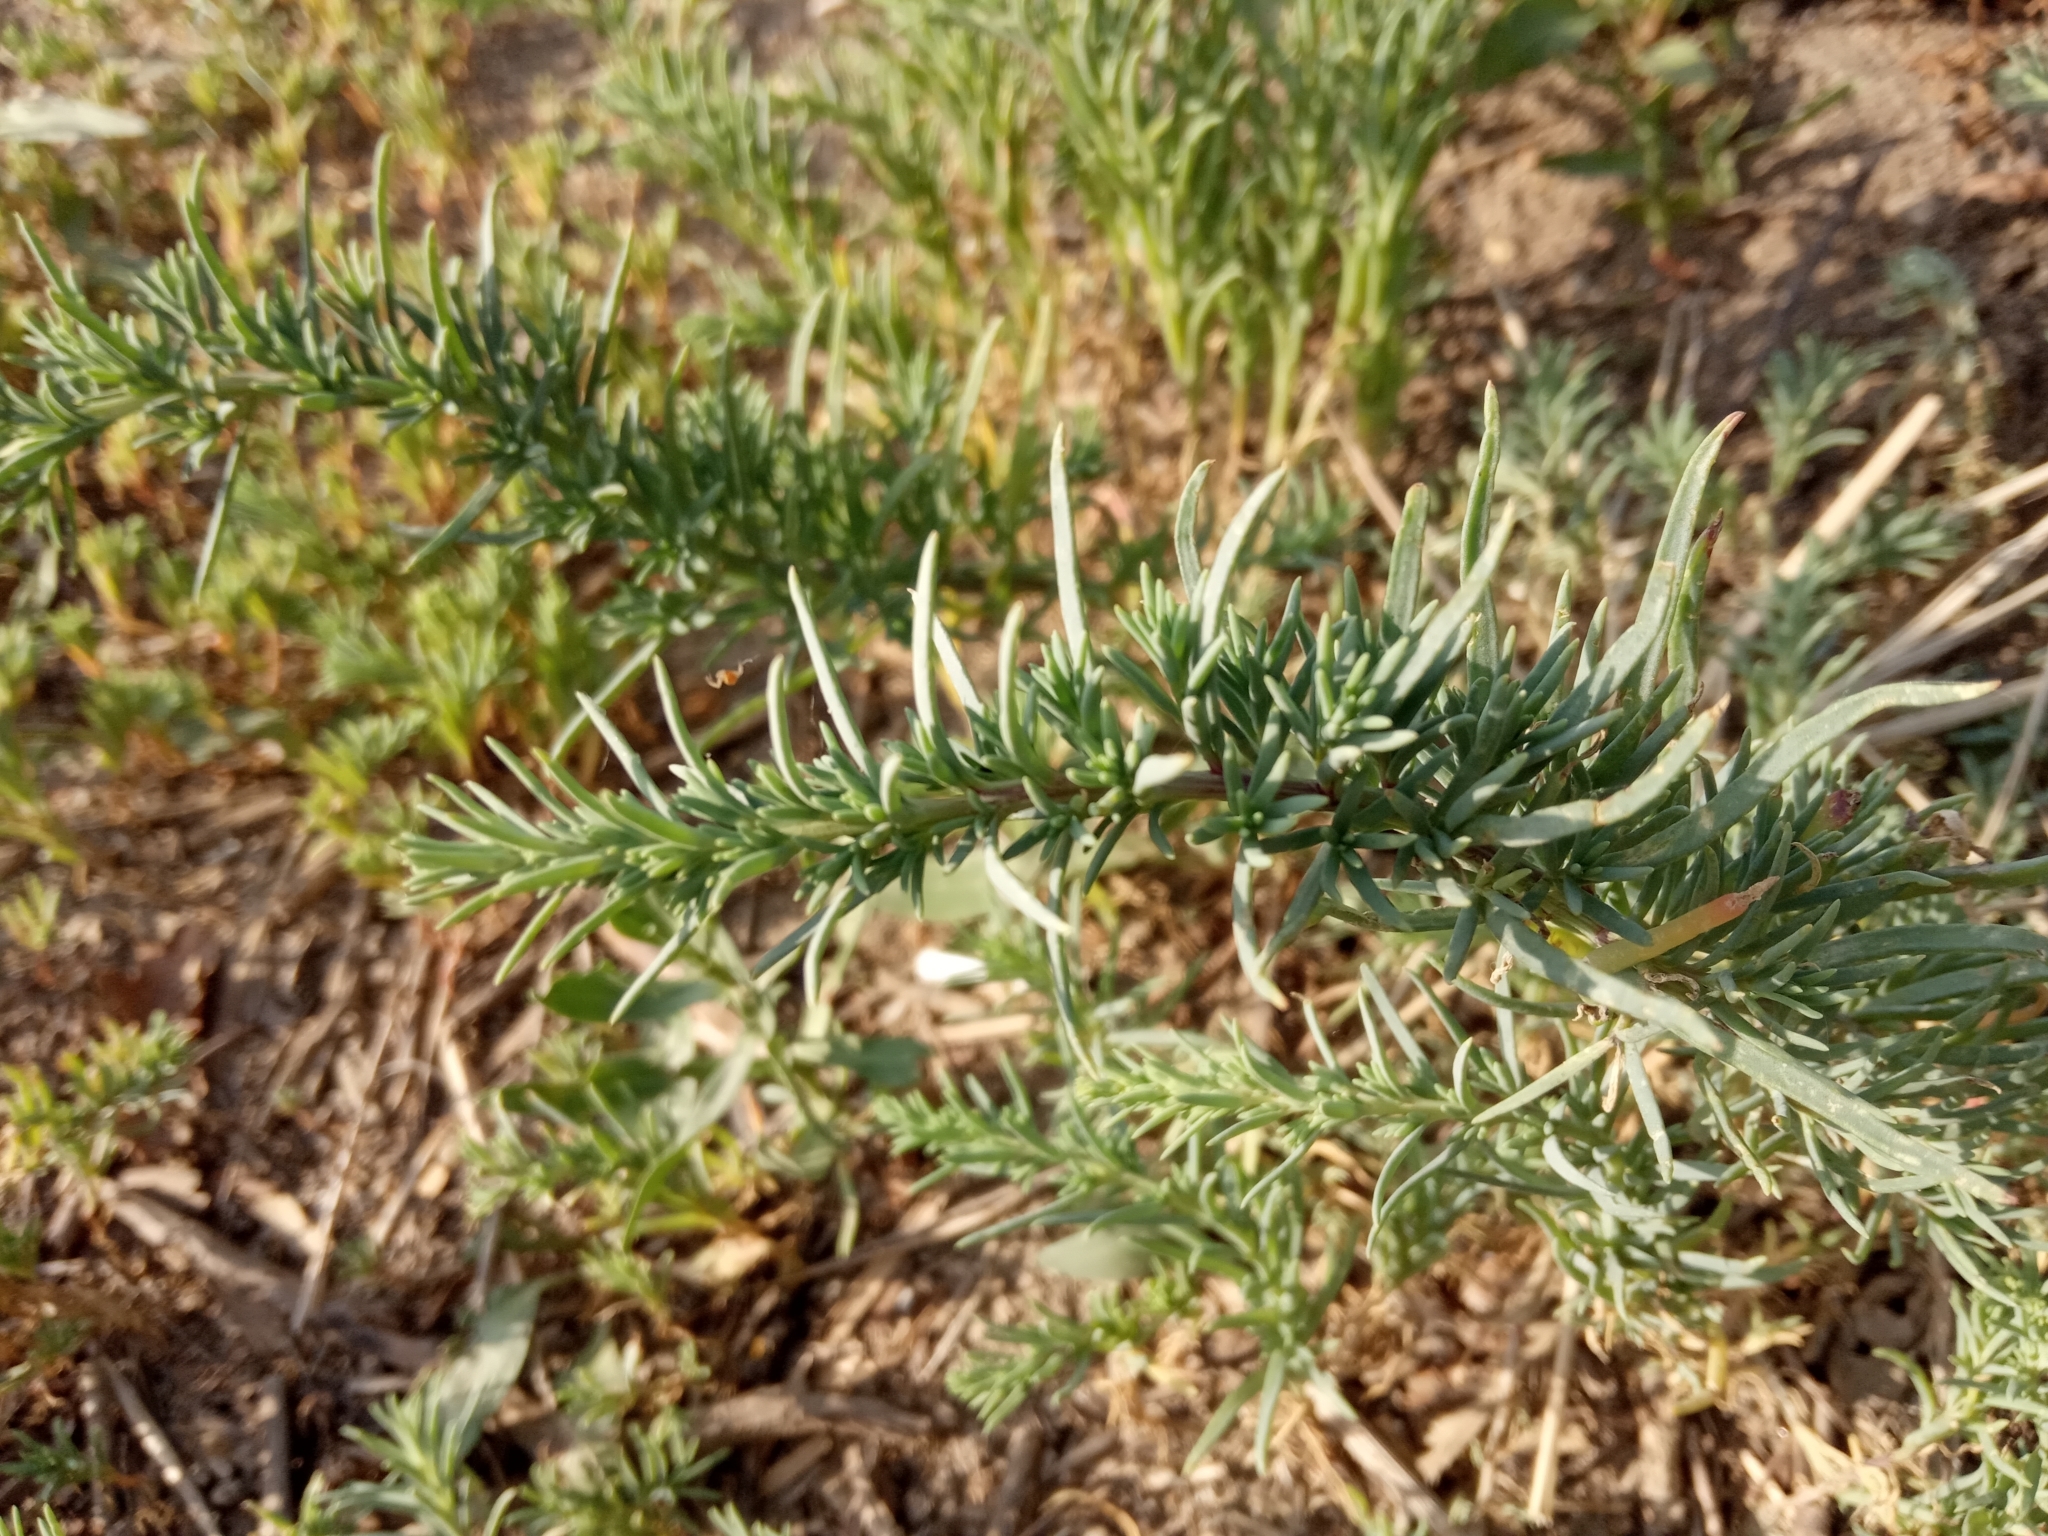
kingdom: Plantae
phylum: Tracheophyta
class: Magnoliopsida
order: Caryophyllales
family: Amaranthaceae
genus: Suaeda
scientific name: Suaeda prostrata
